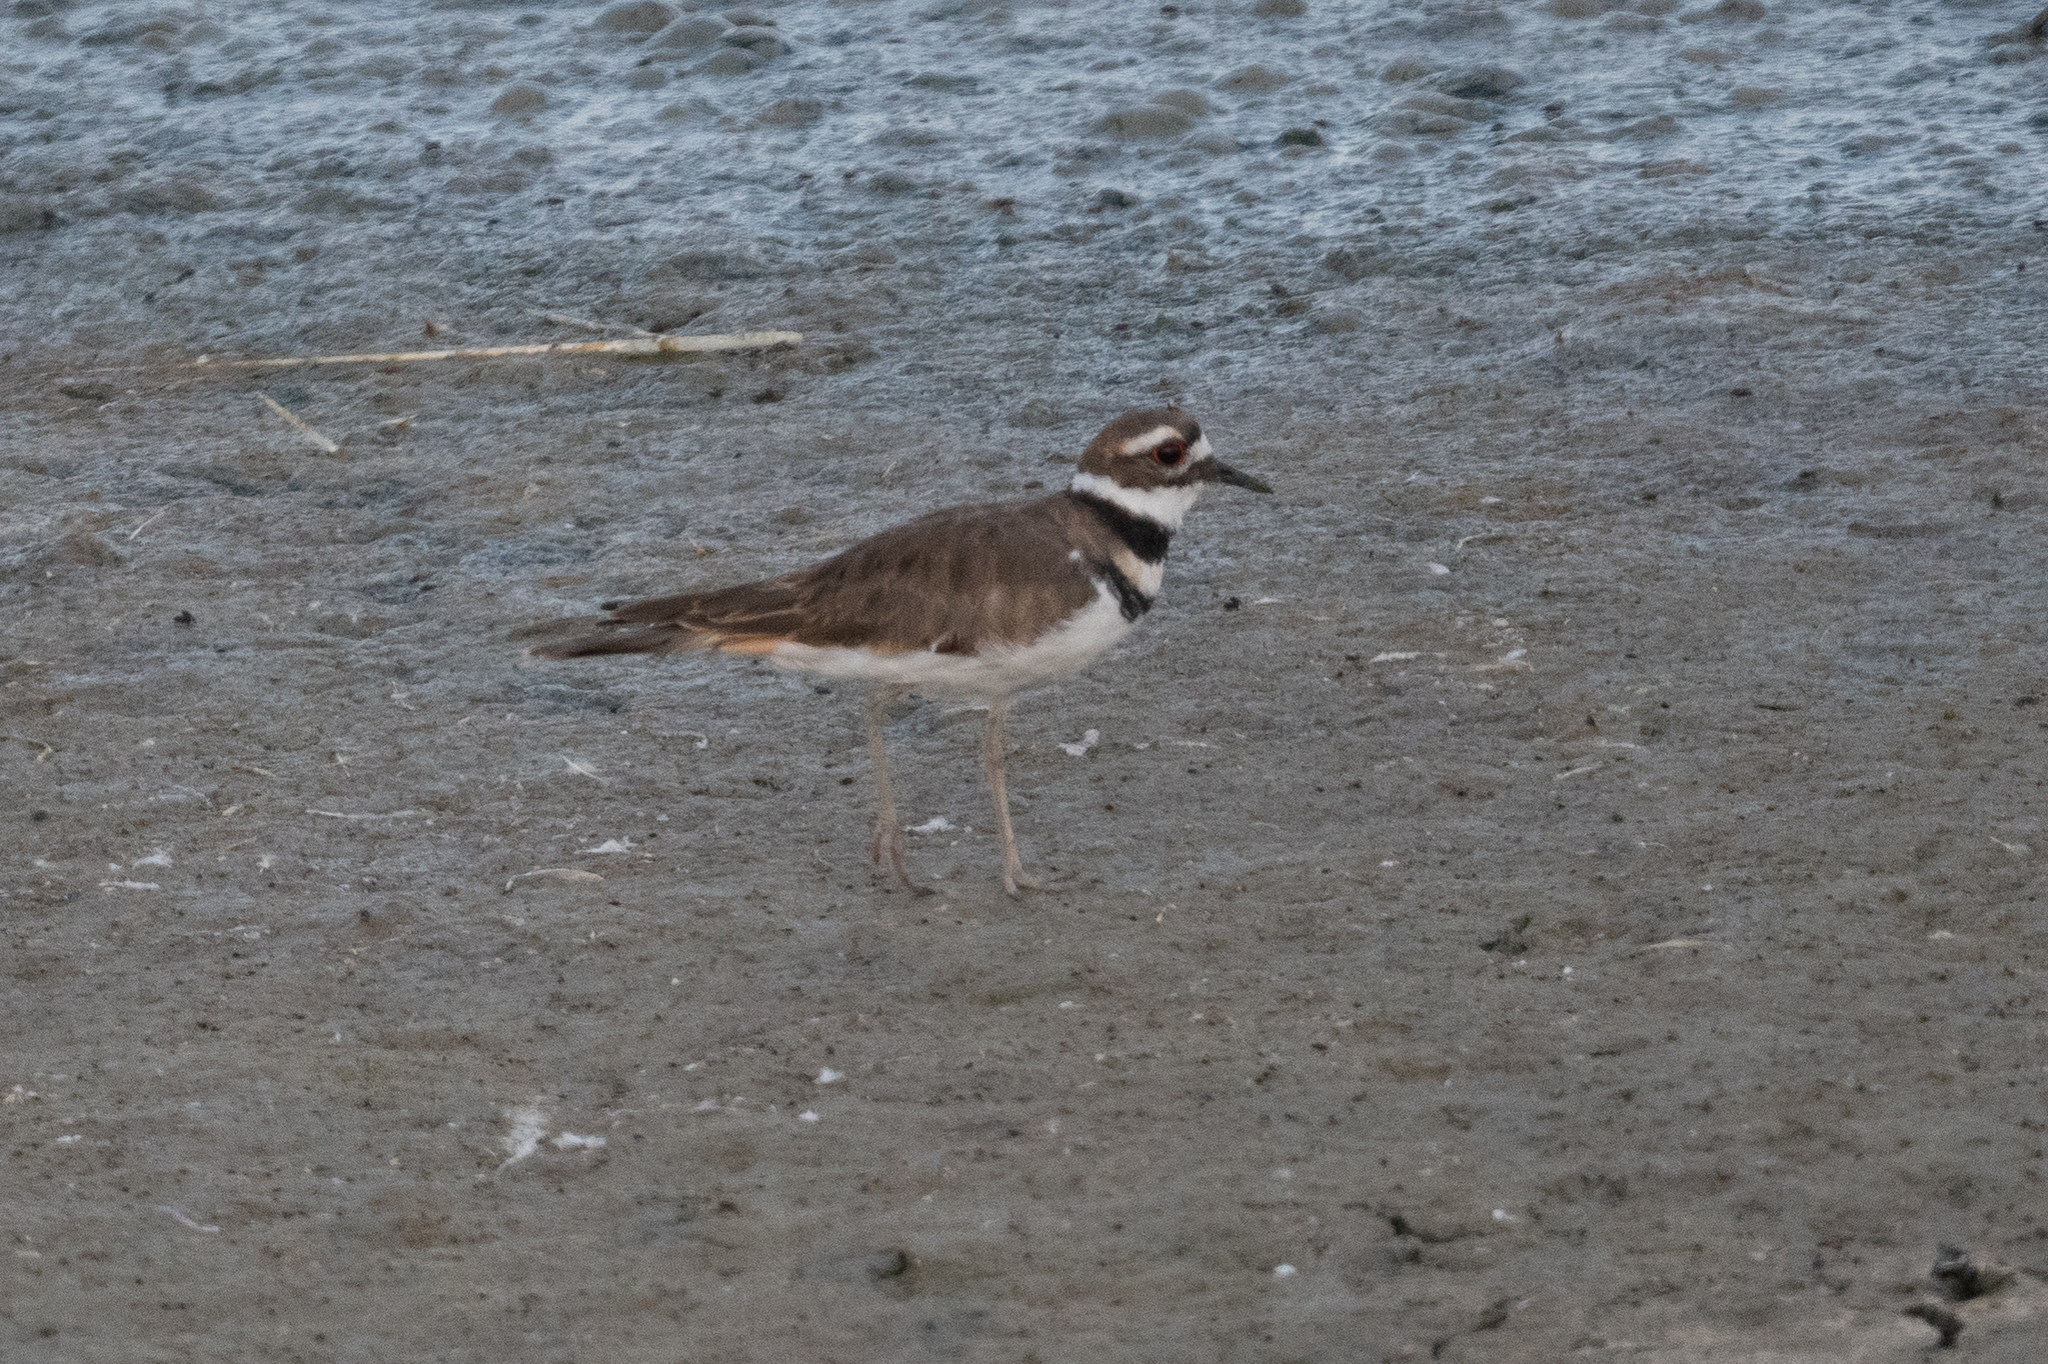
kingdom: Animalia
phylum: Chordata
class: Aves
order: Charadriiformes
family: Charadriidae
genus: Charadrius
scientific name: Charadrius vociferus
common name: Killdeer
